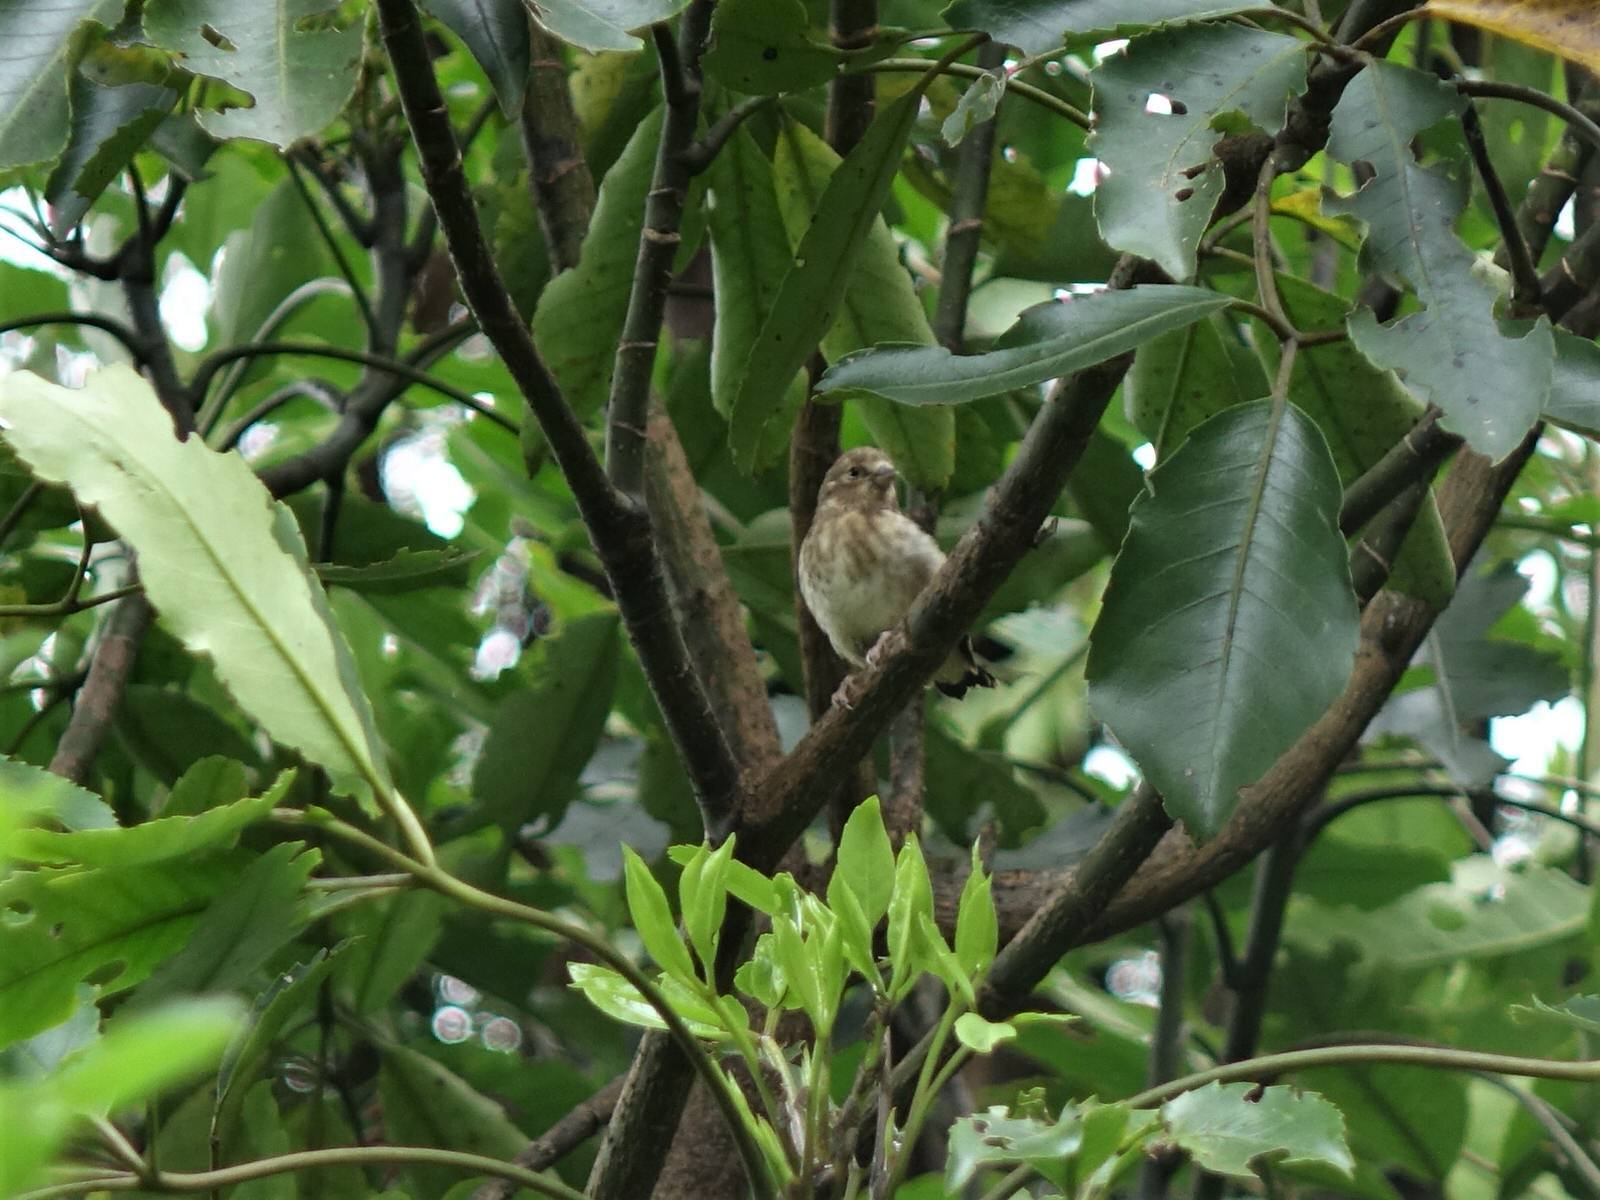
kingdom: Animalia
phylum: Chordata
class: Aves
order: Passeriformes
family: Fringillidae
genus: Carduelis
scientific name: Carduelis carduelis
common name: European goldfinch
